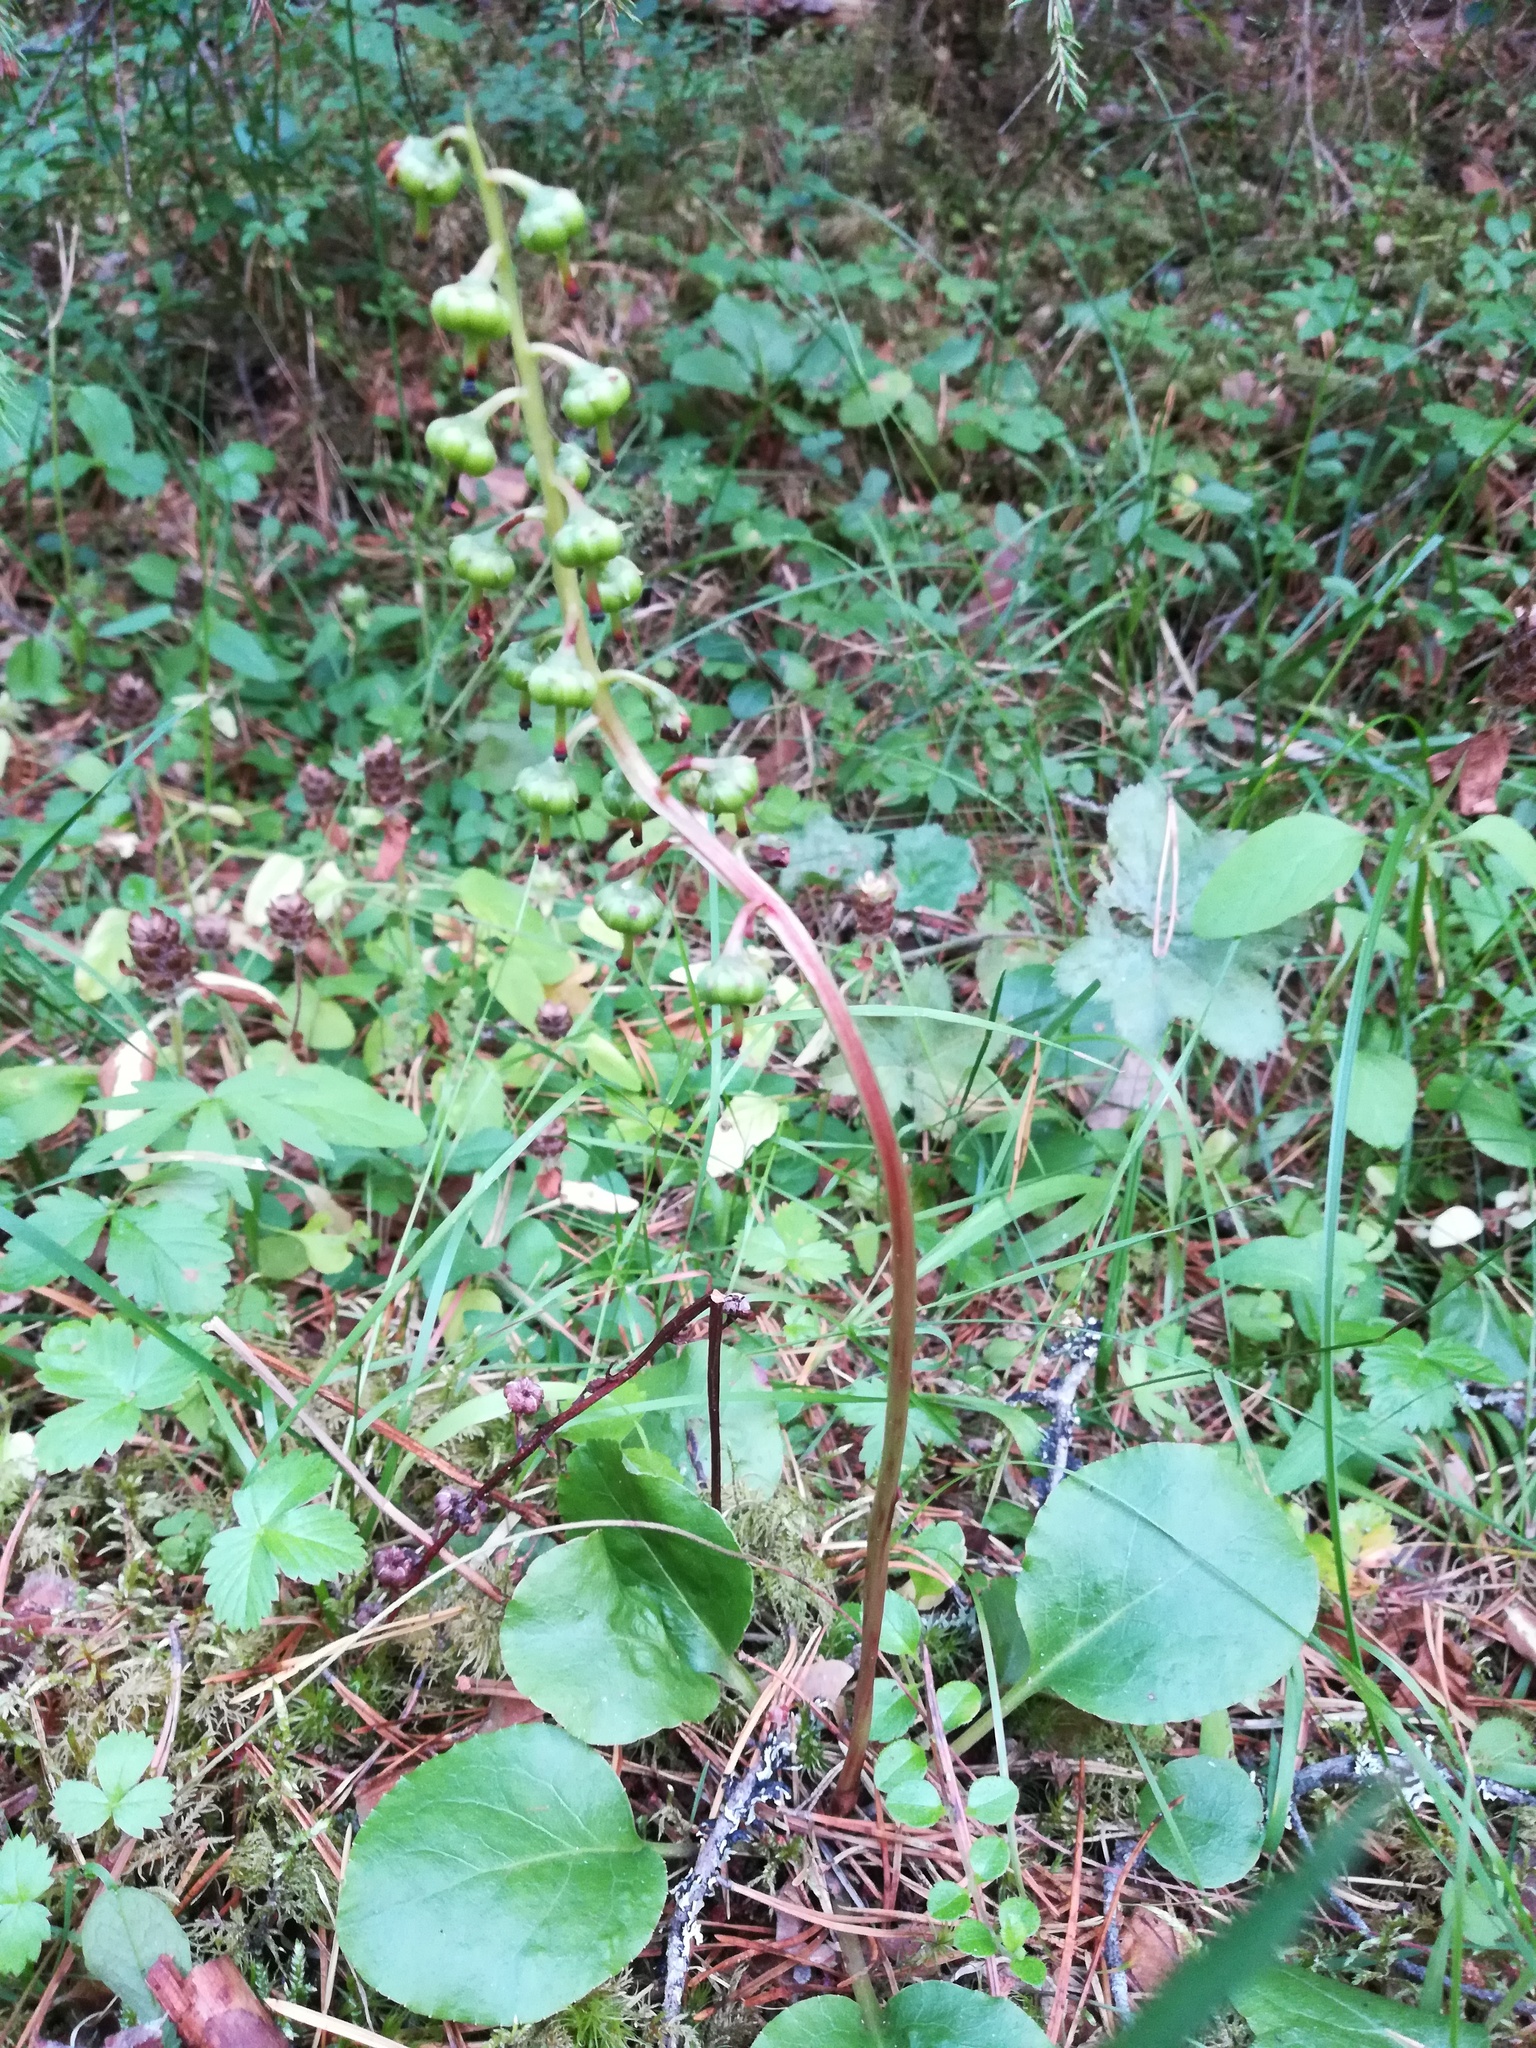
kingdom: Plantae
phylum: Tracheophyta
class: Magnoliopsida
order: Ericales
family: Ericaceae
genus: Pyrola
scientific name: Pyrola media
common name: Intermediate wintergreen
